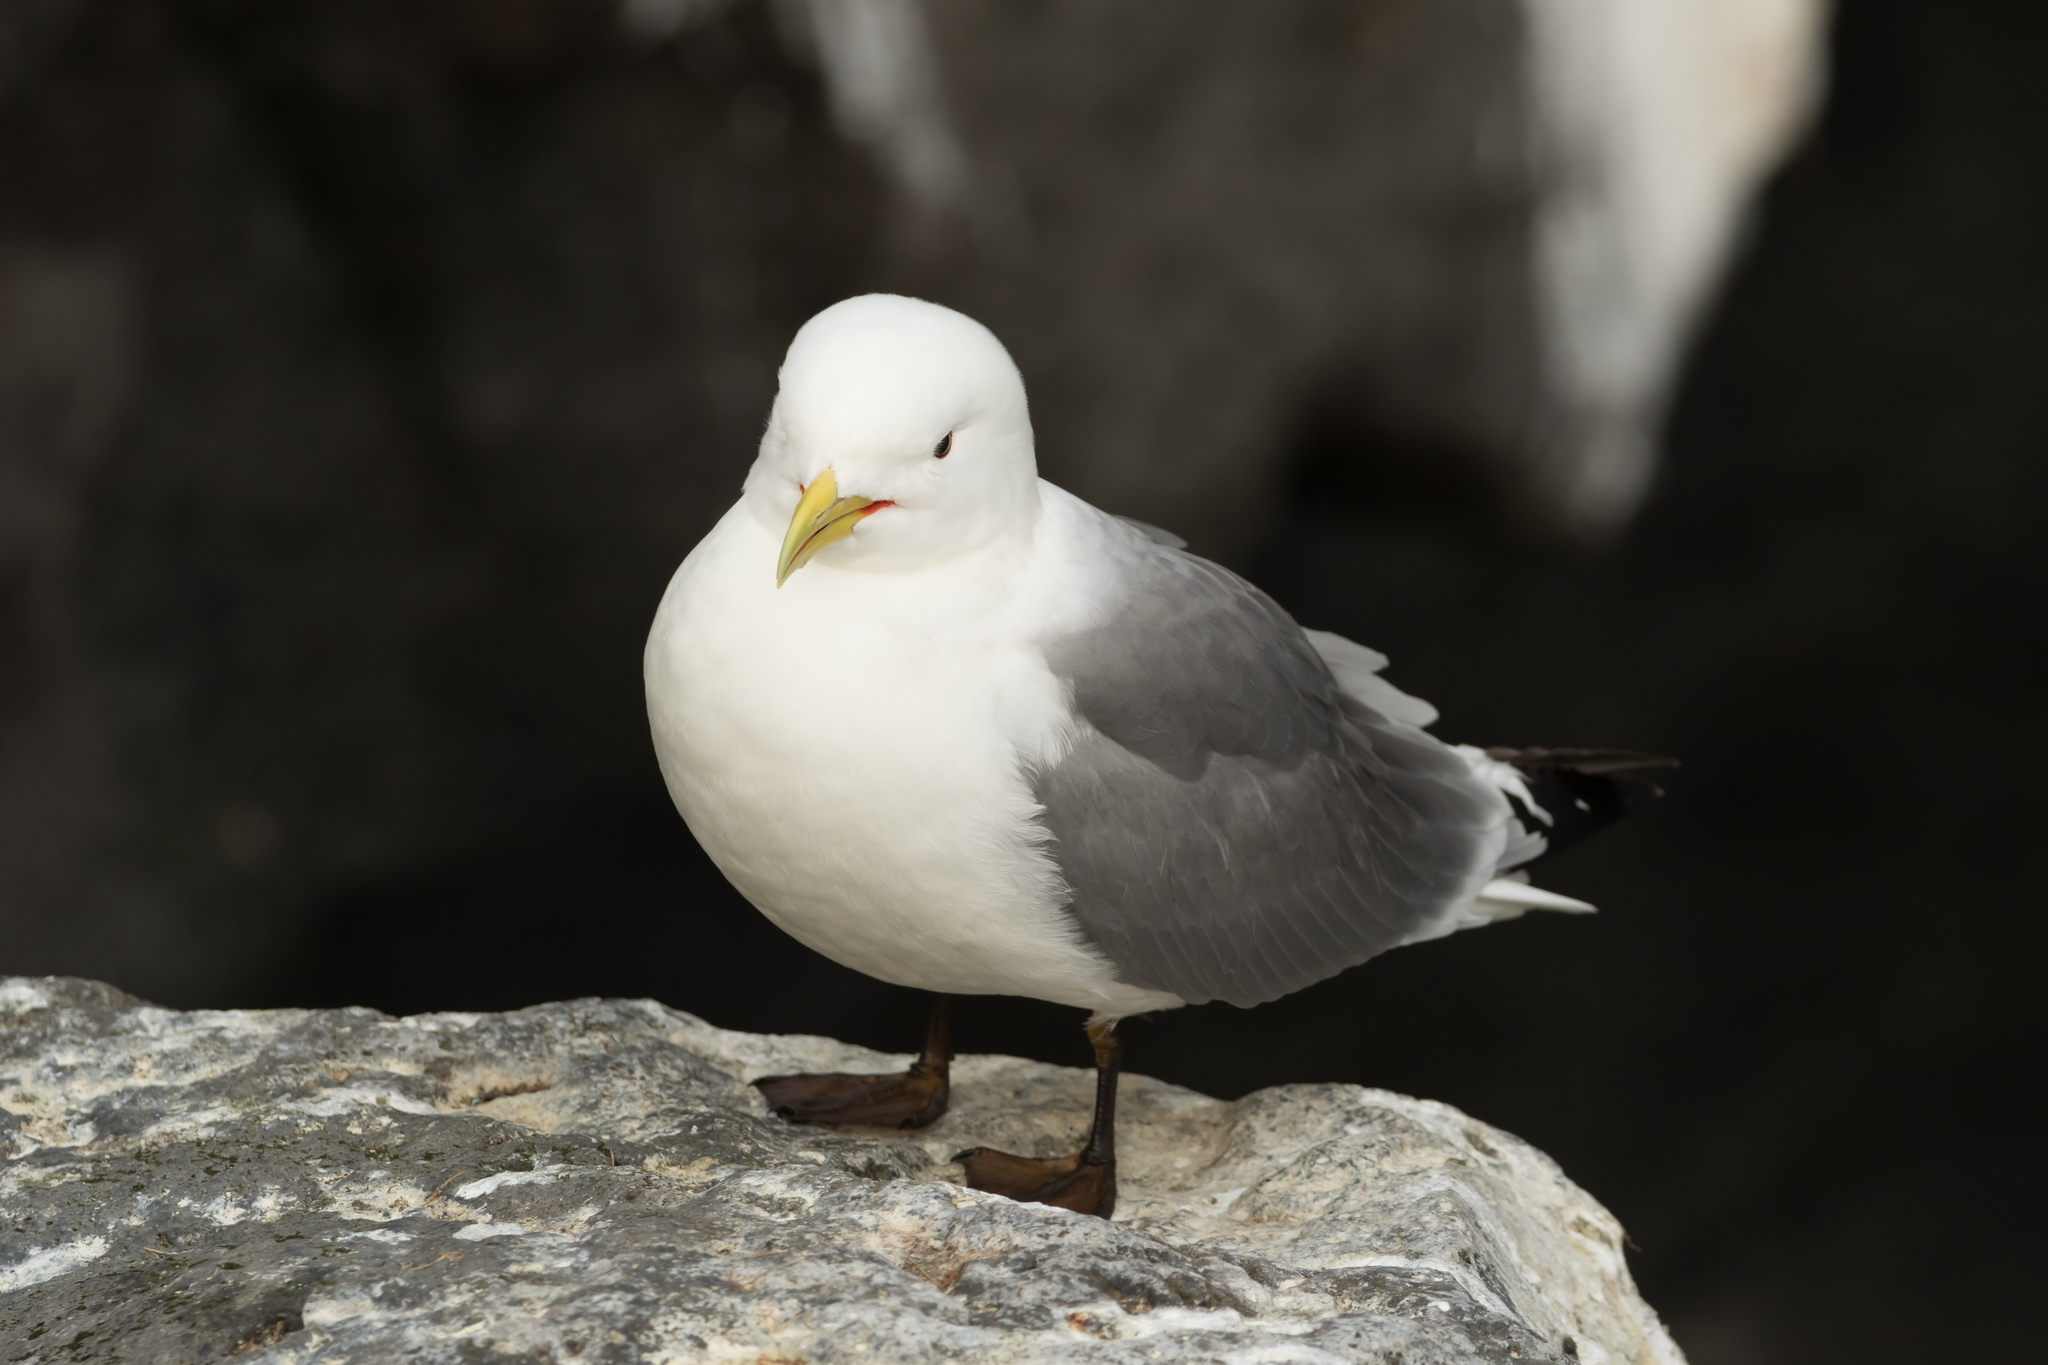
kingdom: Animalia
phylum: Chordata
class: Aves
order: Charadriiformes
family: Laridae
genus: Rissa
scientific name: Rissa tridactyla
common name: Black-legged kittiwake
